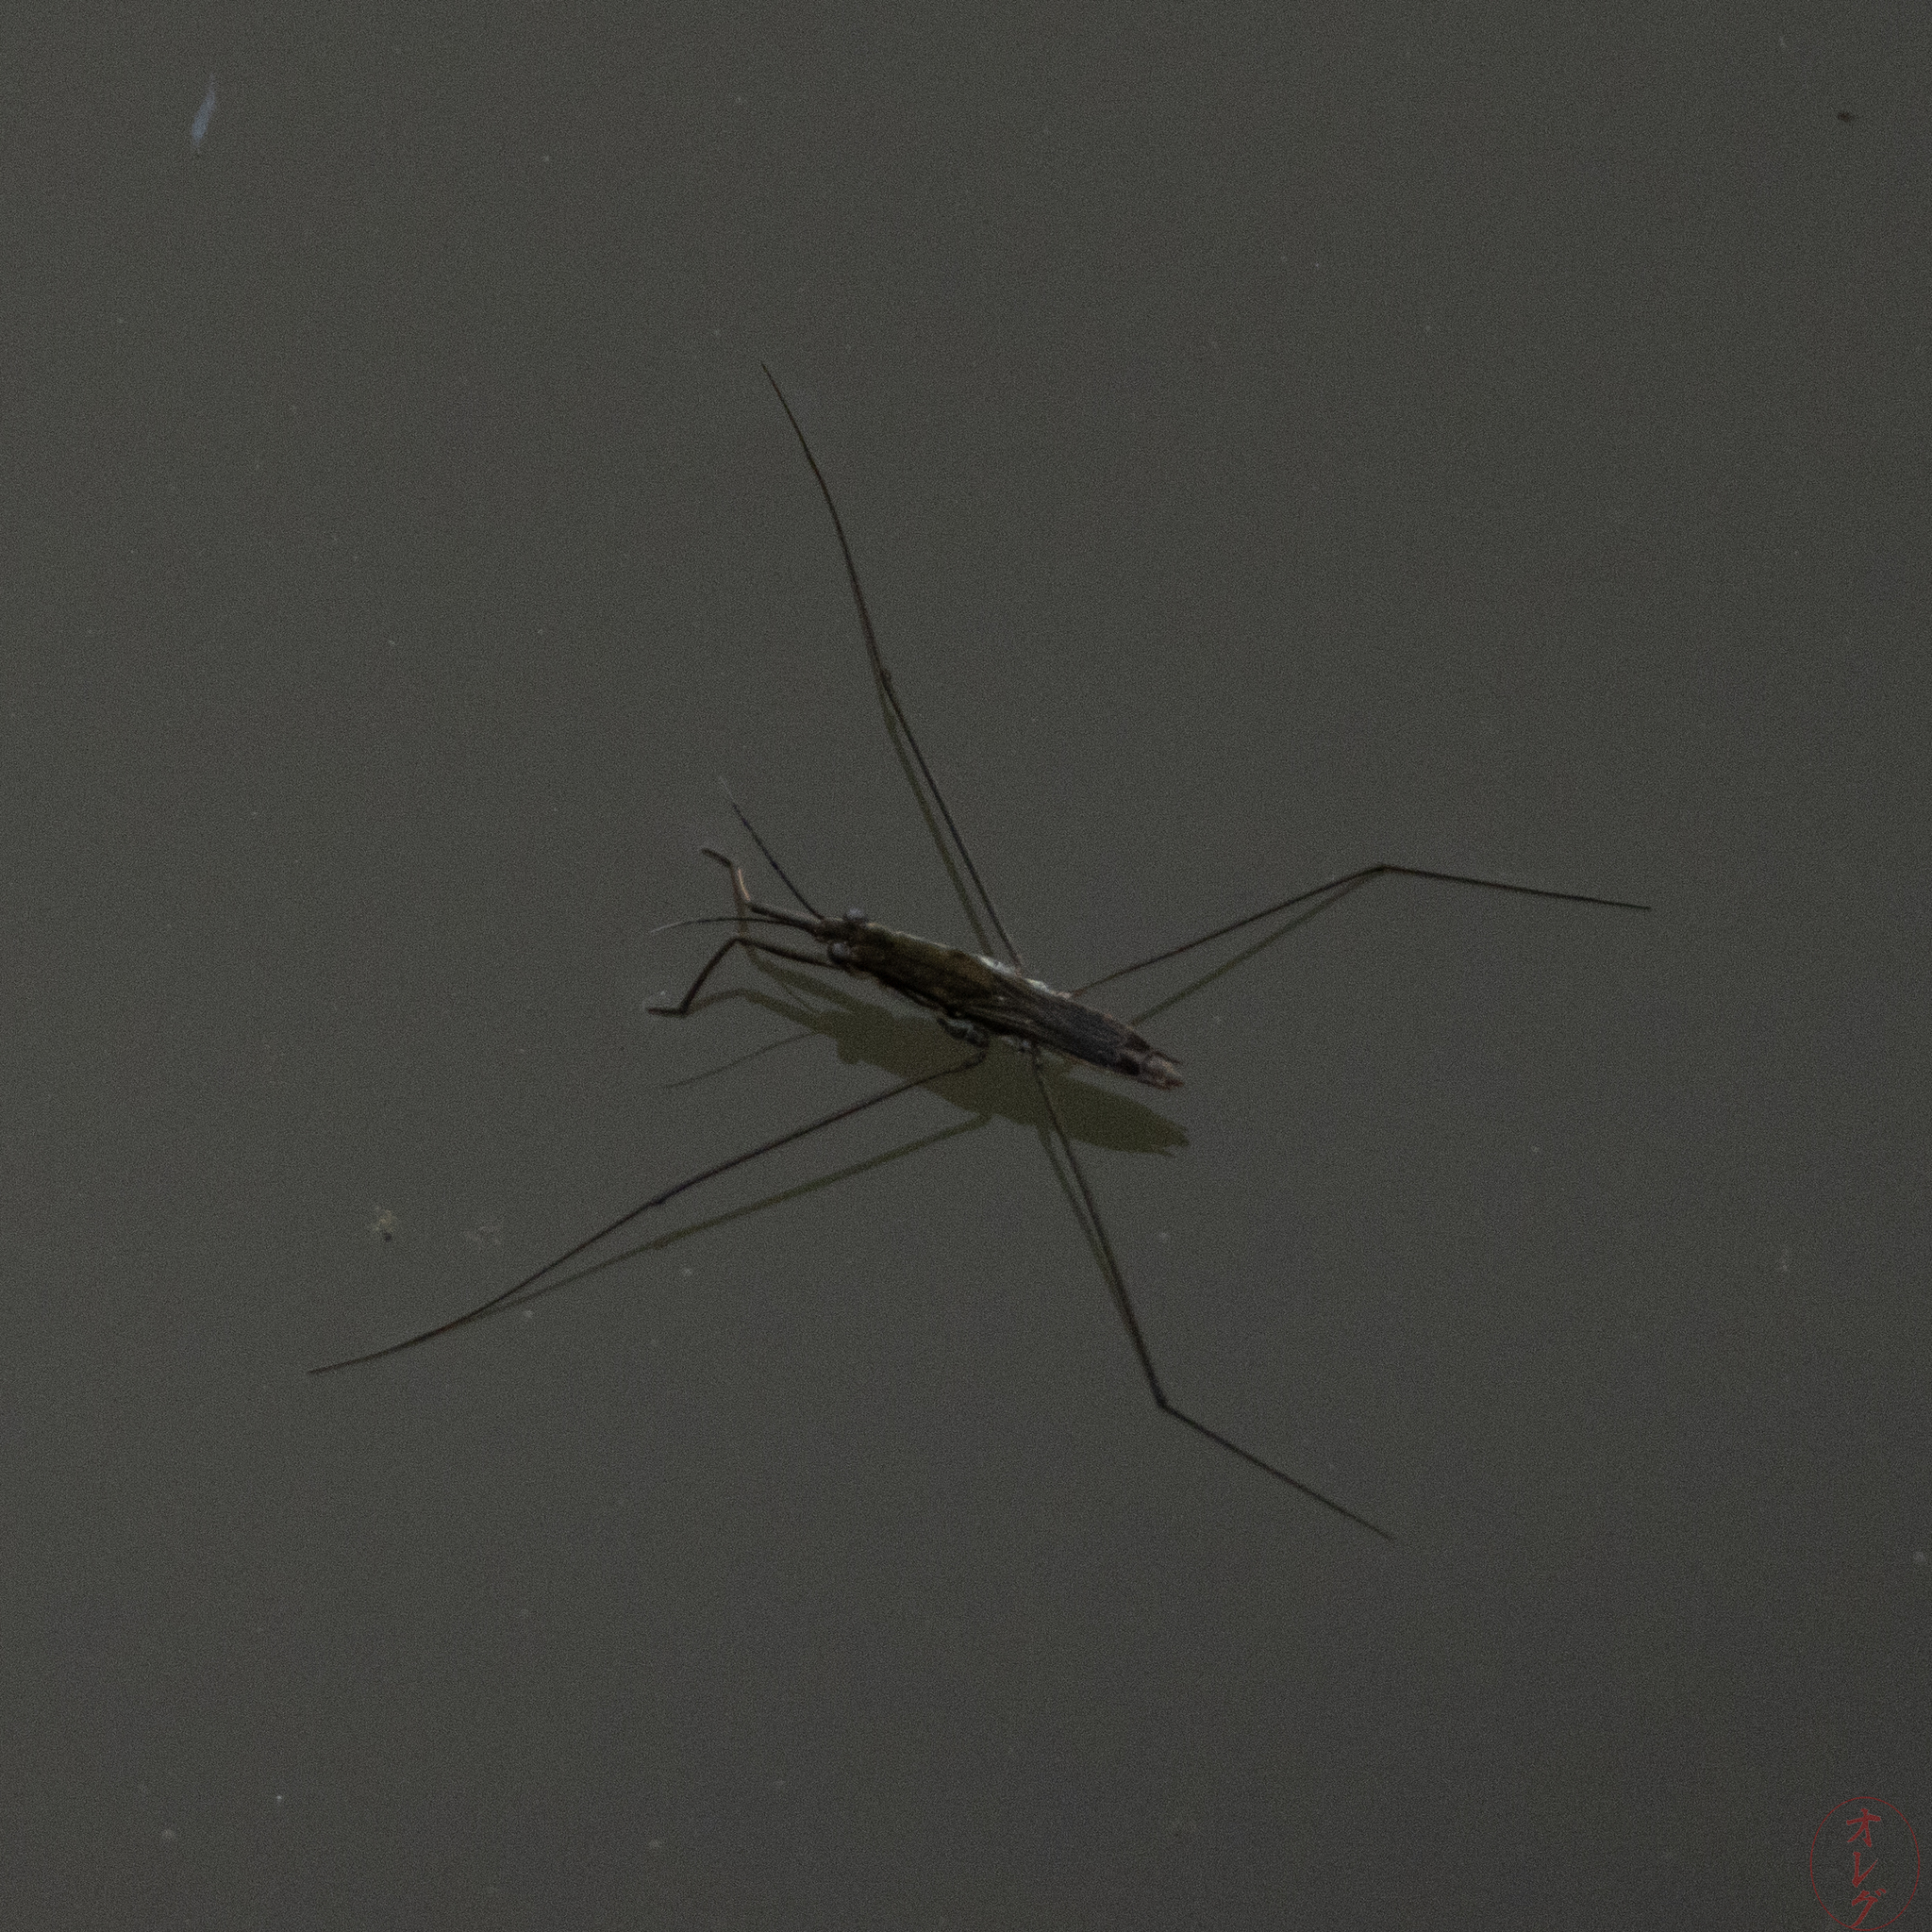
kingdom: Animalia
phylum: Arthropoda
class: Insecta
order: Hemiptera
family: Gerridae
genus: Aquarius
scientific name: Aquarius paludum
